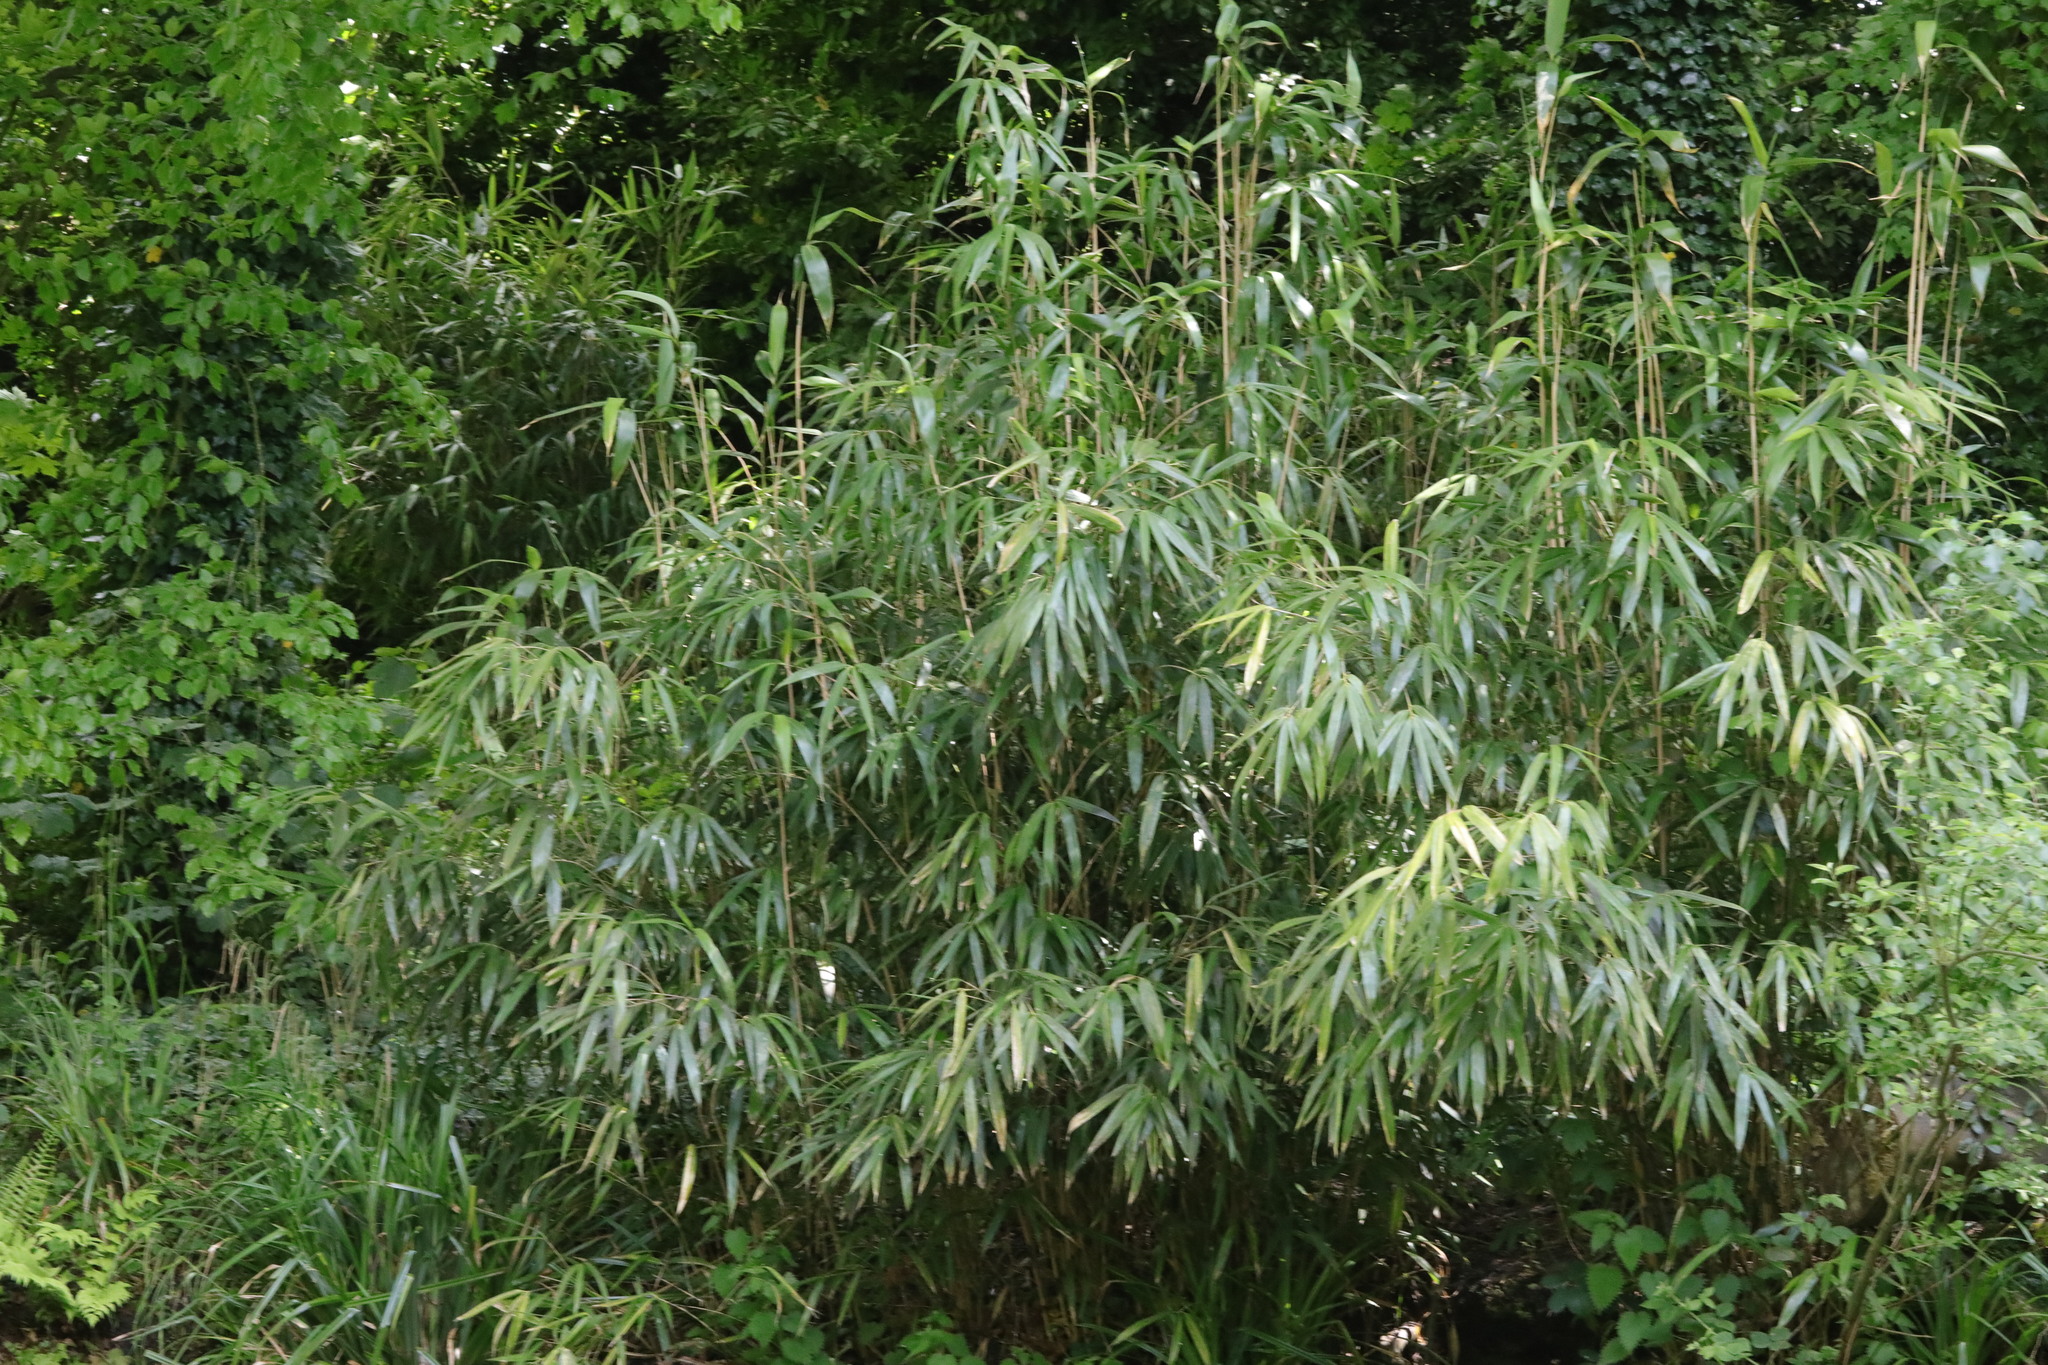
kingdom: Plantae
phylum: Tracheophyta
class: Liliopsida
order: Poales
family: Poaceae
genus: Pseudosasa
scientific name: Pseudosasa japonica
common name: Arrow bamboo
